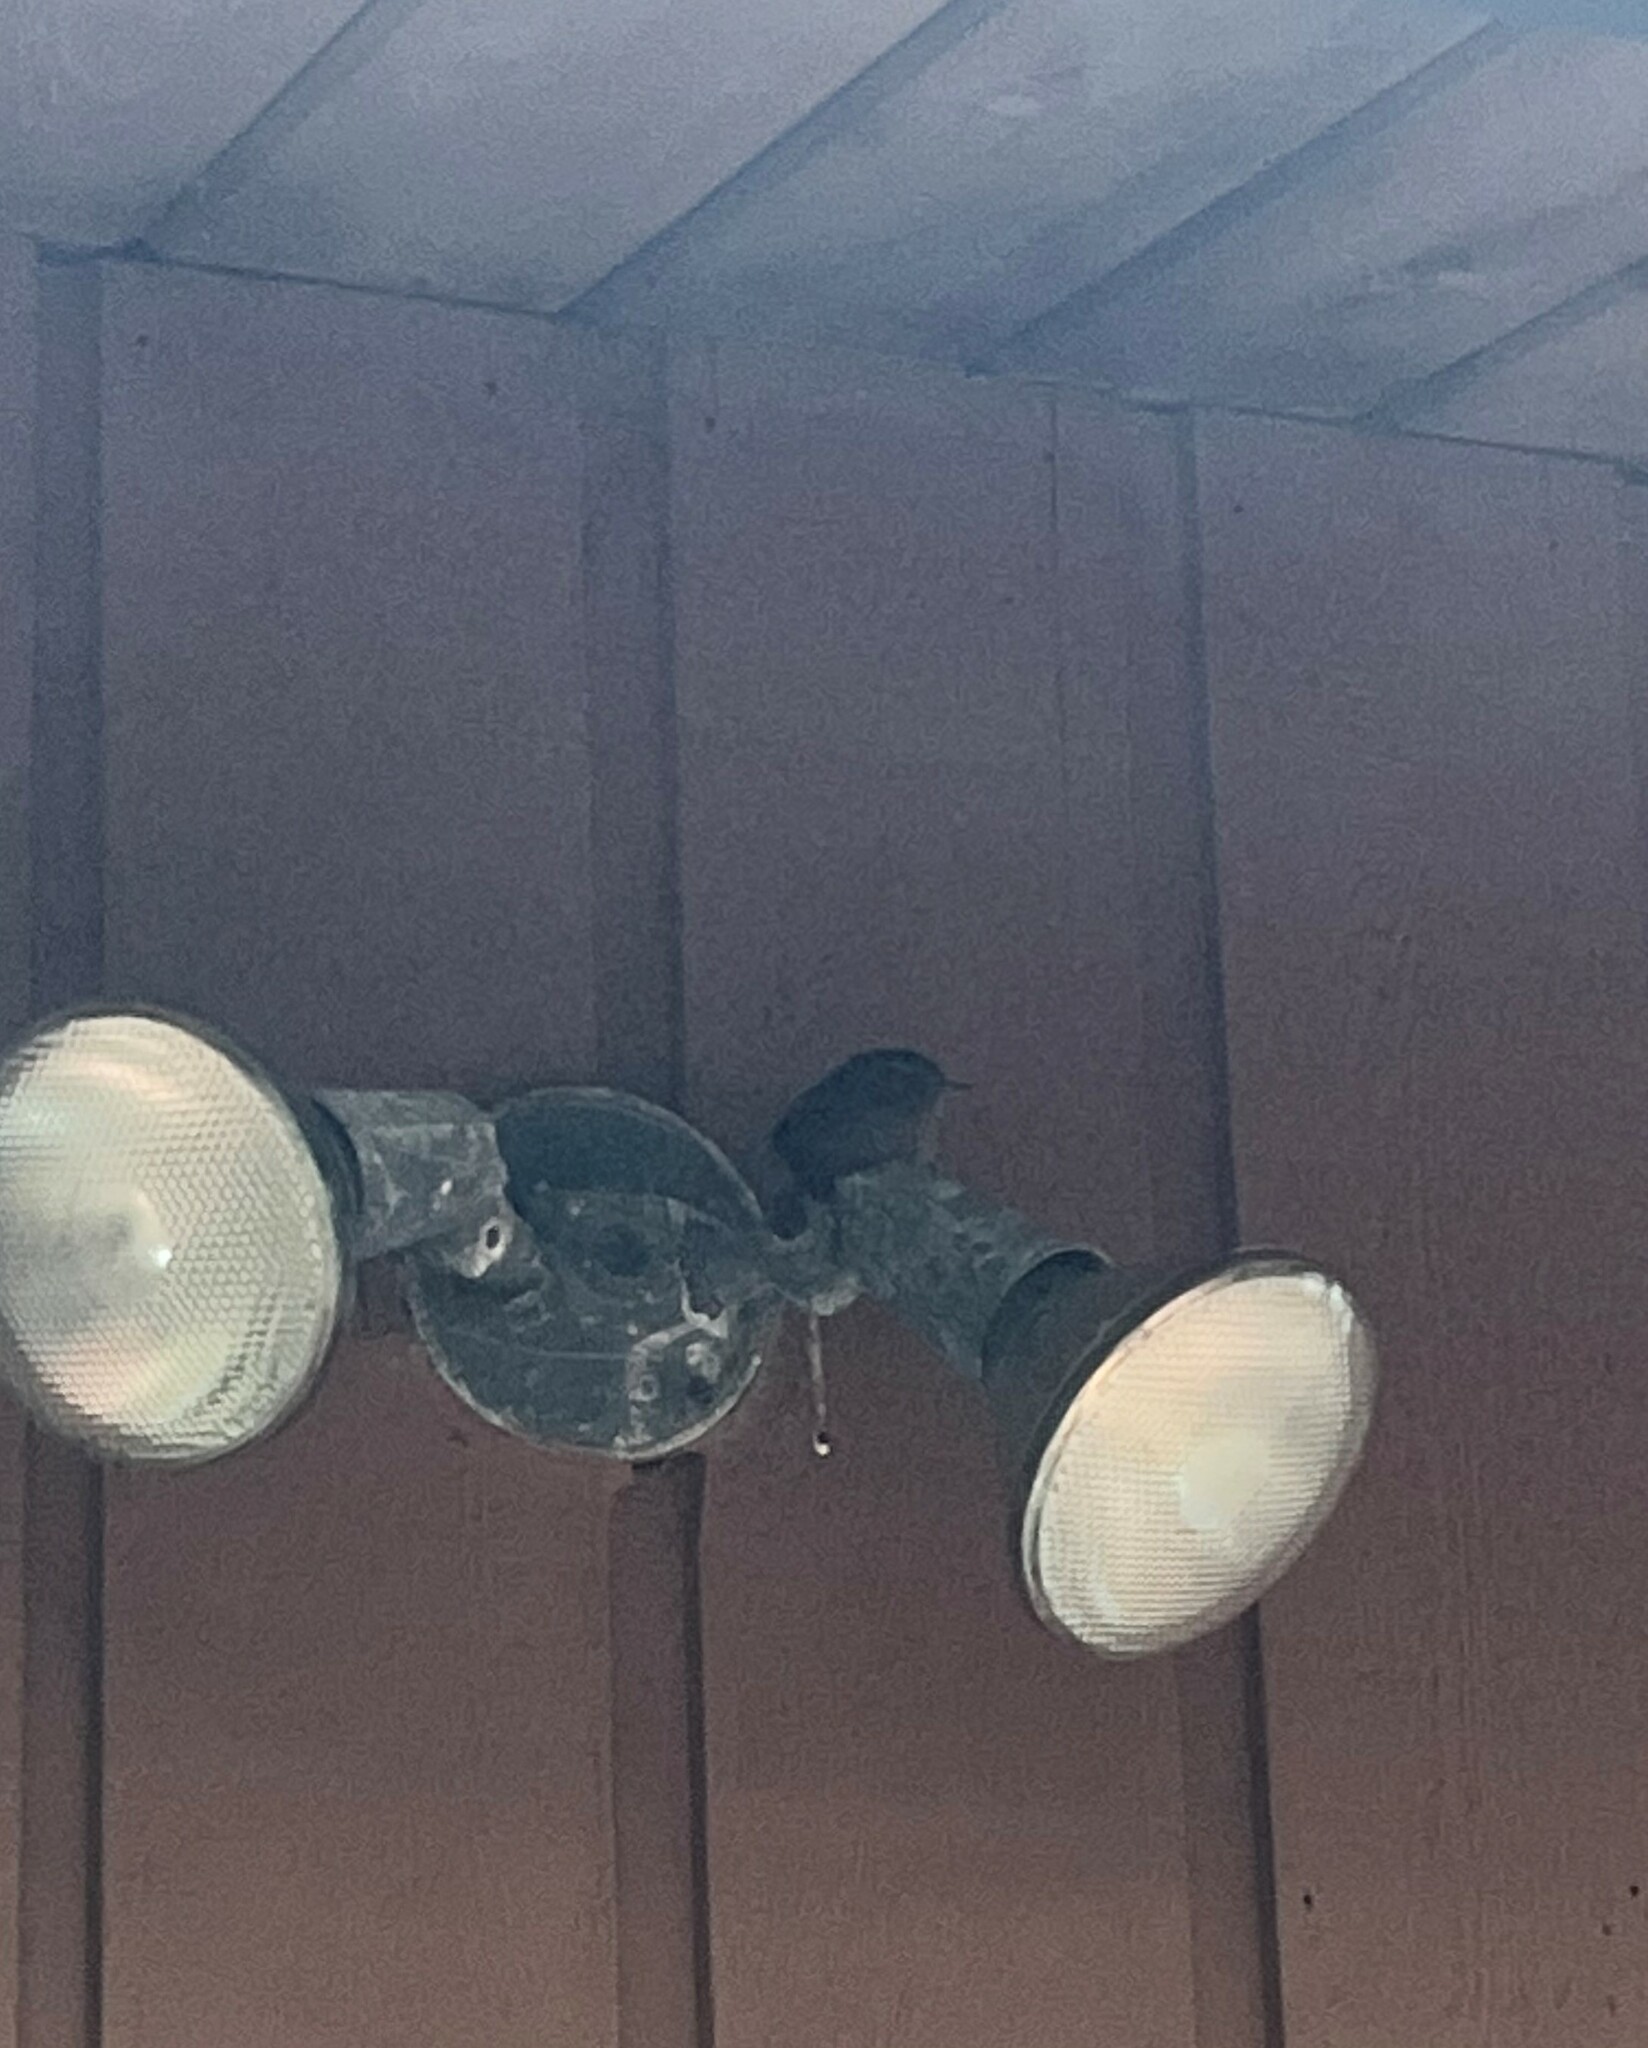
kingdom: Animalia
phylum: Chordata
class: Aves
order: Passeriformes
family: Troglodytidae
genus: Troglodytes
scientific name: Troglodytes pacificus
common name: Pacific wren
